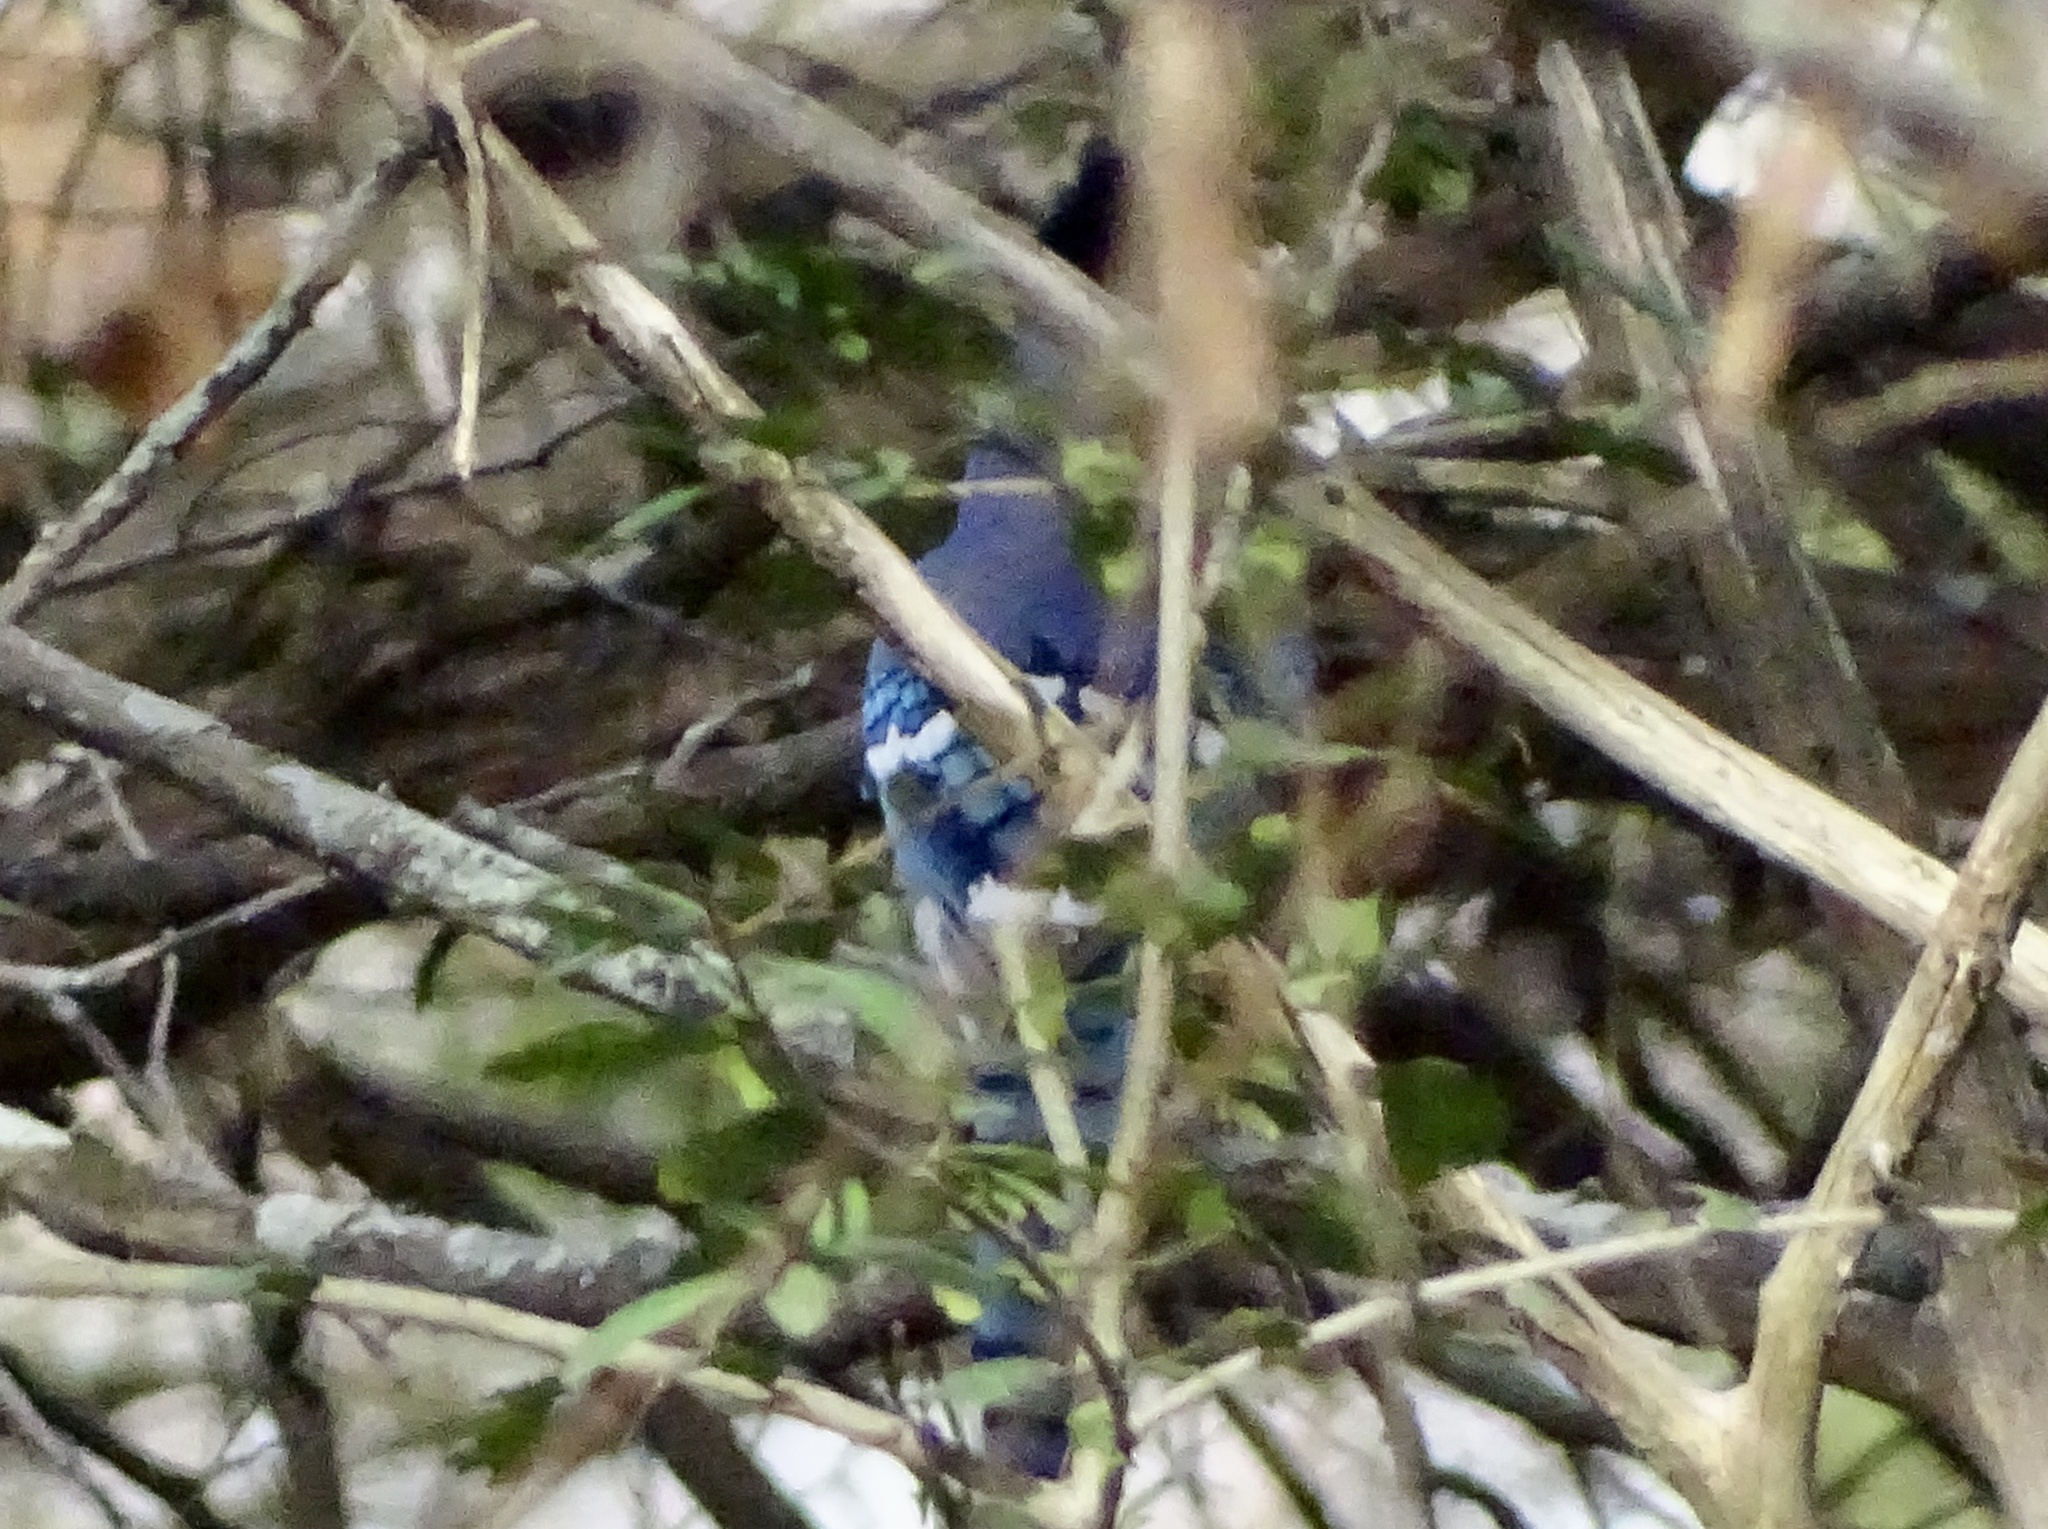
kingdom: Animalia
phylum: Chordata
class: Aves
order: Passeriformes
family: Corvidae
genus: Cyanocitta
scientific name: Cyanocitta cristata
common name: Blue jay
